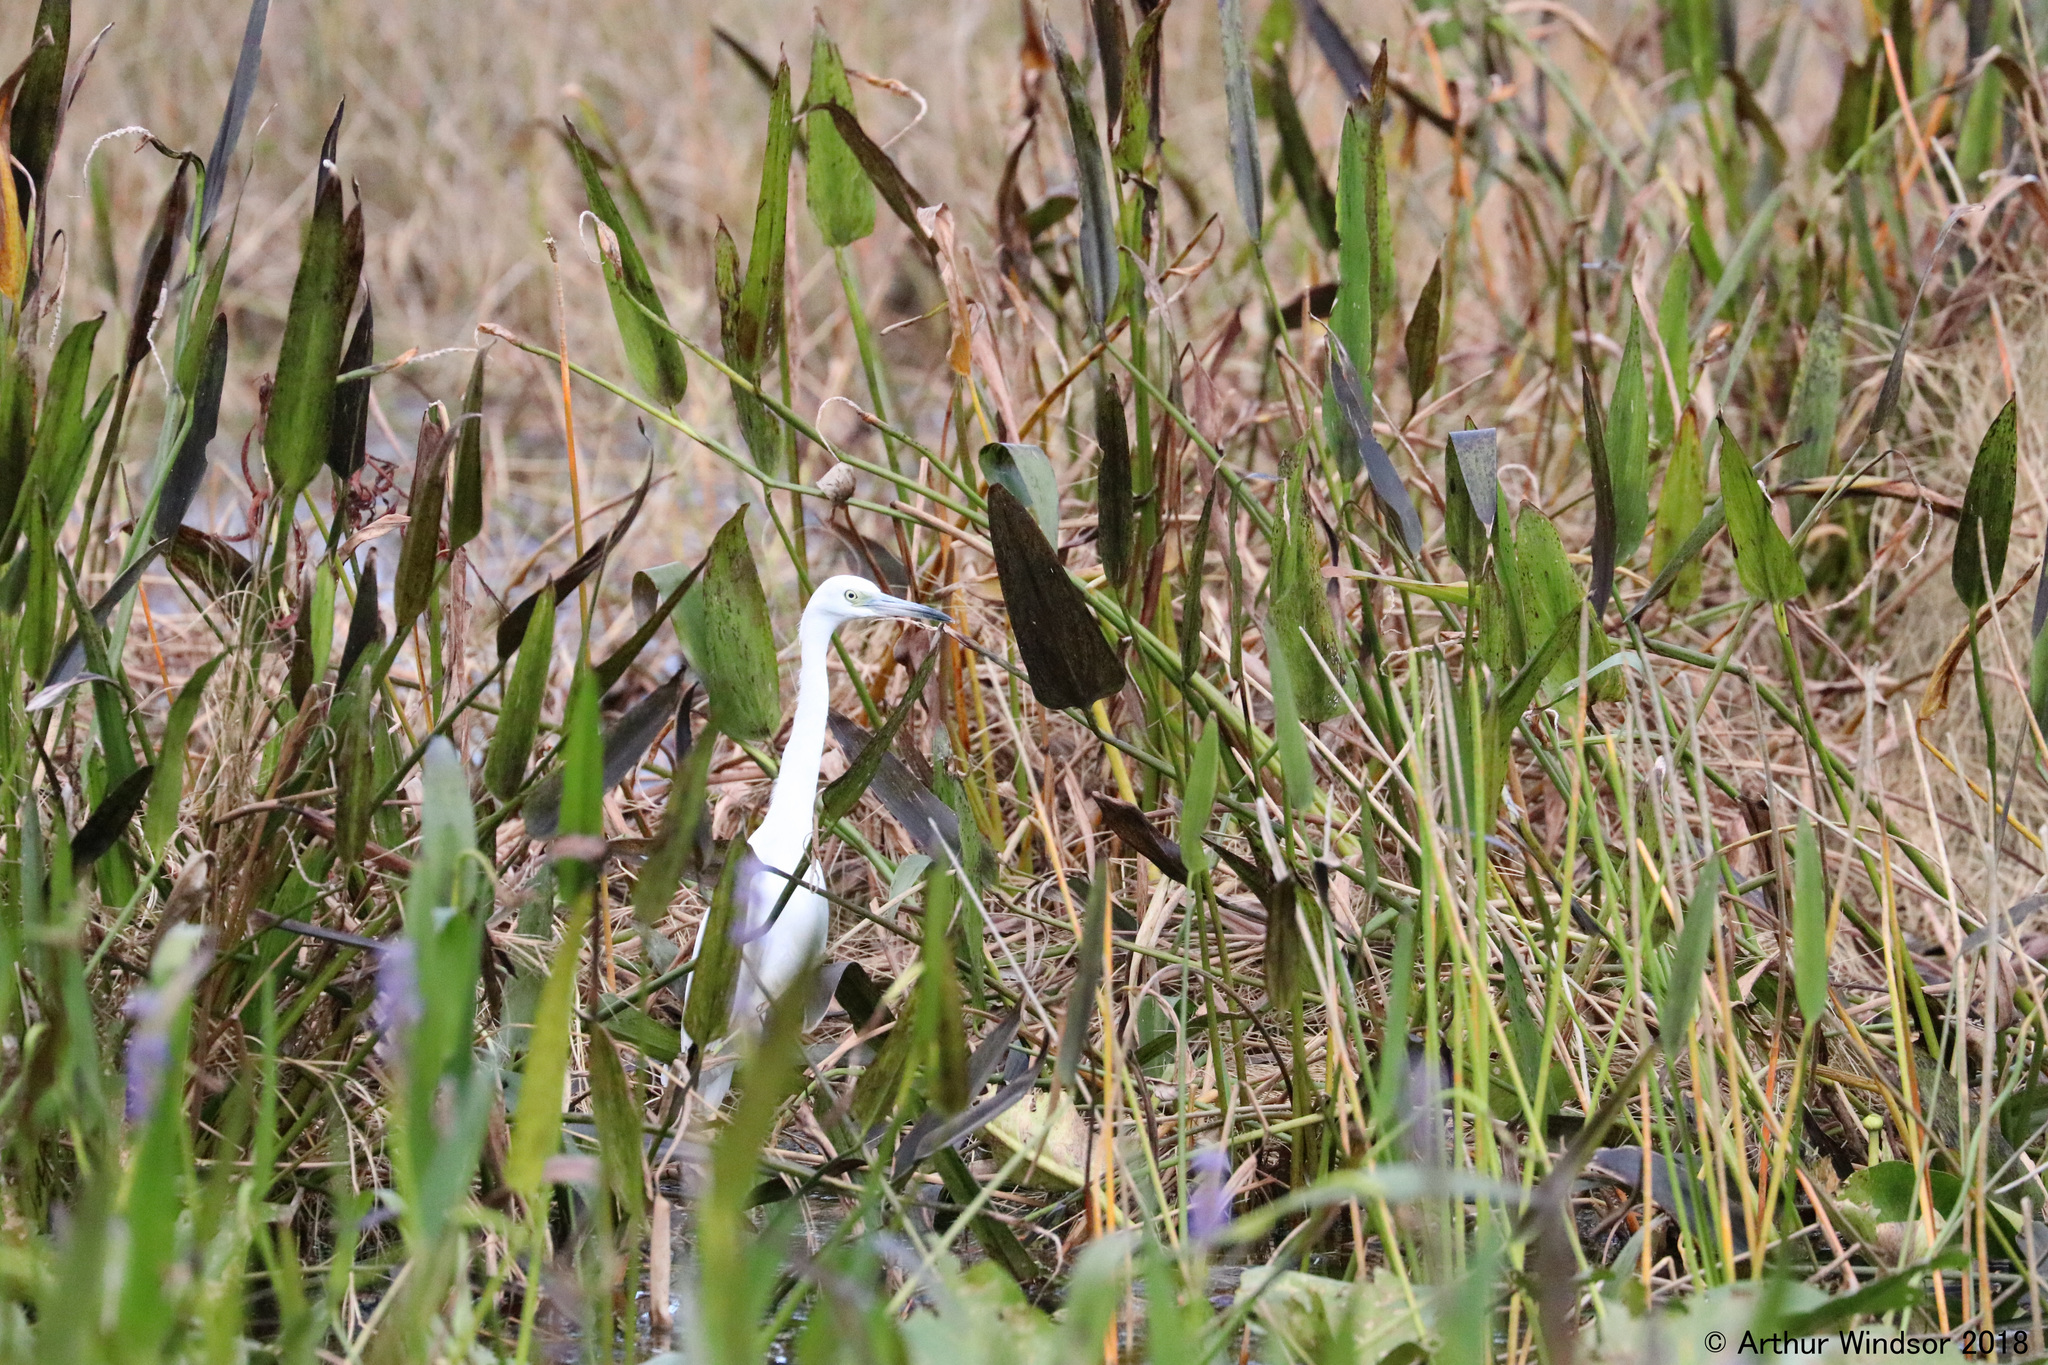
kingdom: Animalia
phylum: Chordata
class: Aves
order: Pelecaniformes
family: Ardeidae
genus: Egretta
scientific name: Egretta caerulea
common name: Little blue heron
